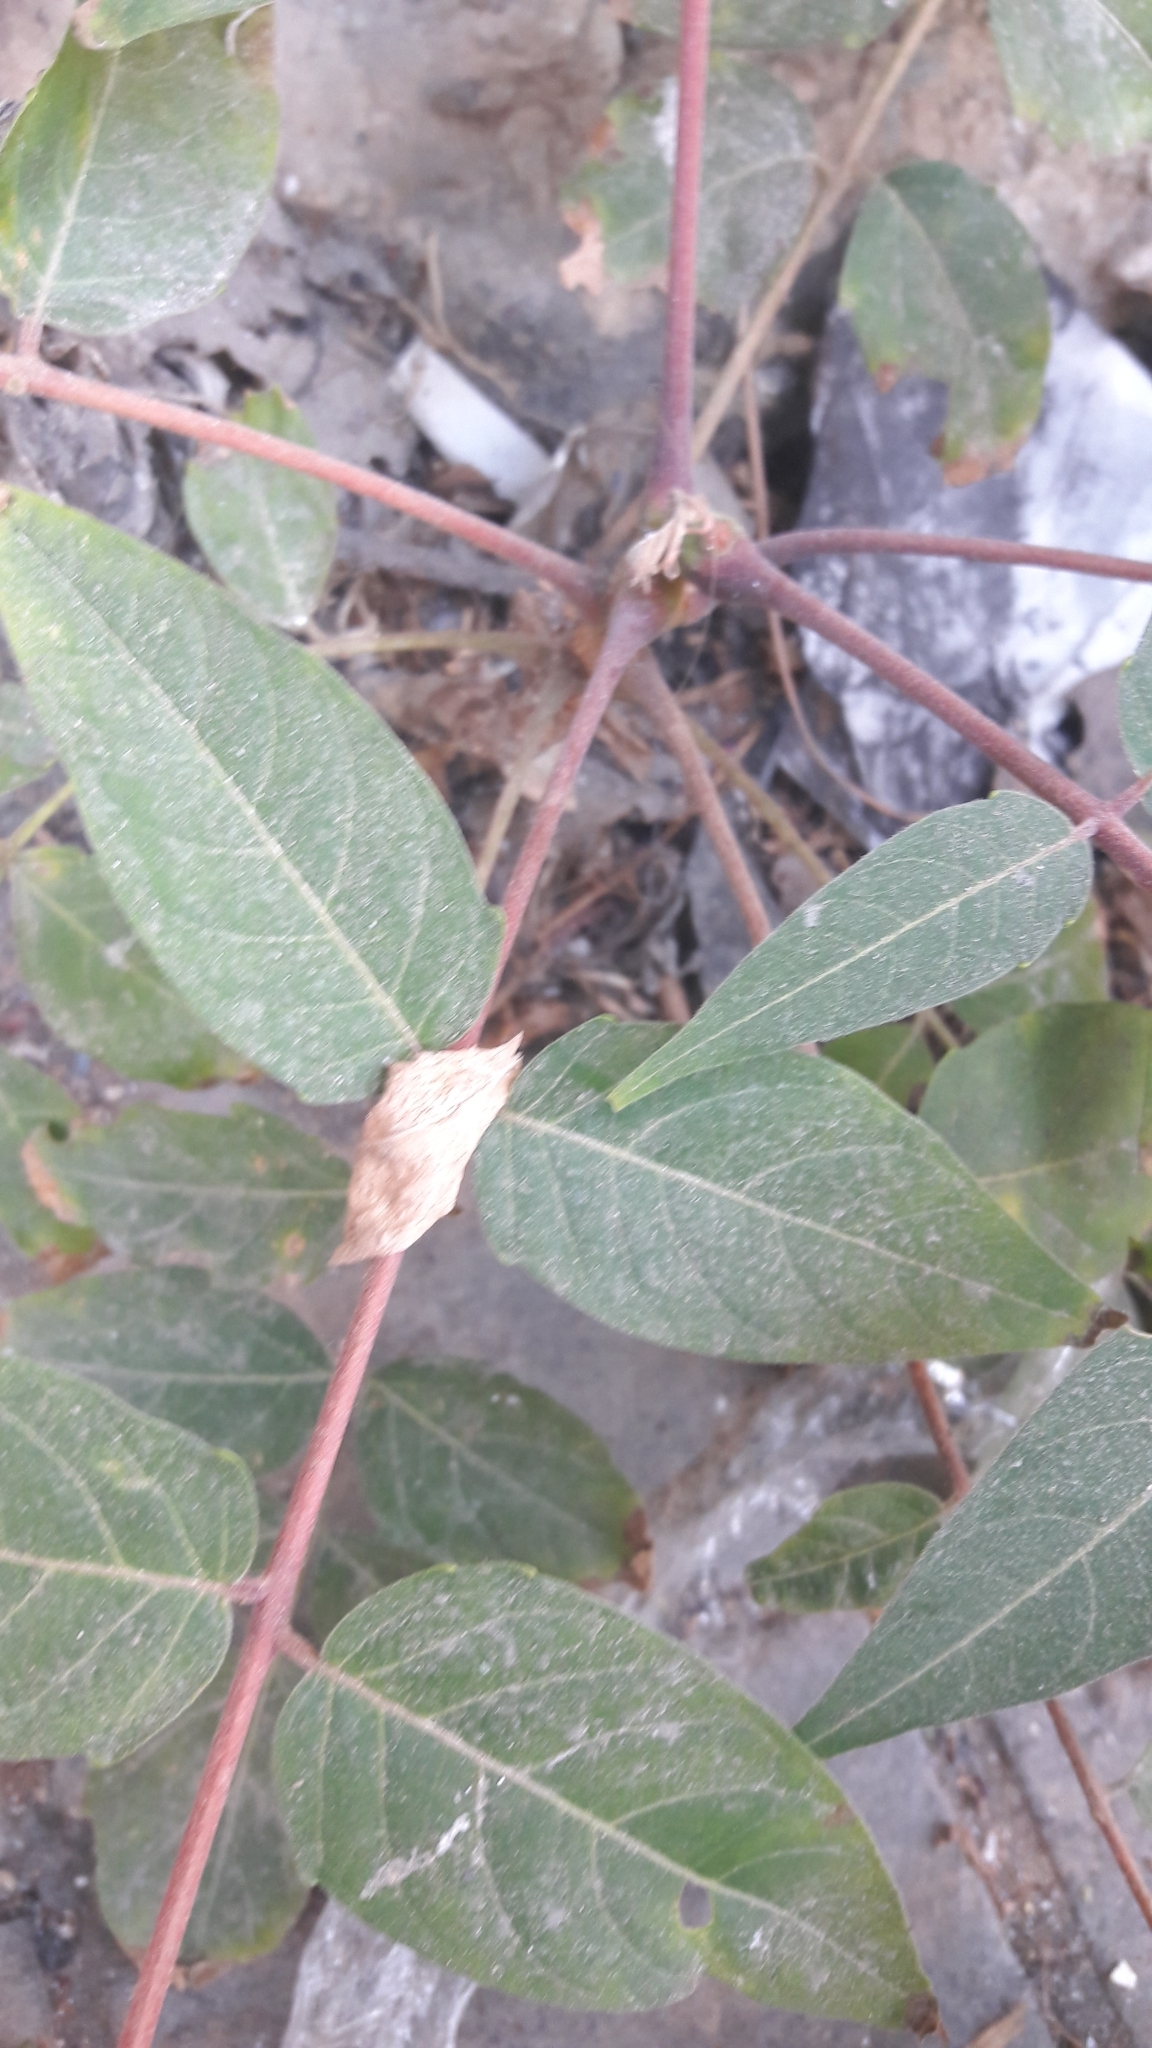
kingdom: Plantae
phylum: Tracheophyta
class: Magnoliopsida
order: Sapindales
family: Simaroubaceae
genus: Ailanthus
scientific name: Ailanthus altissima
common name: Tree-of-heaven
